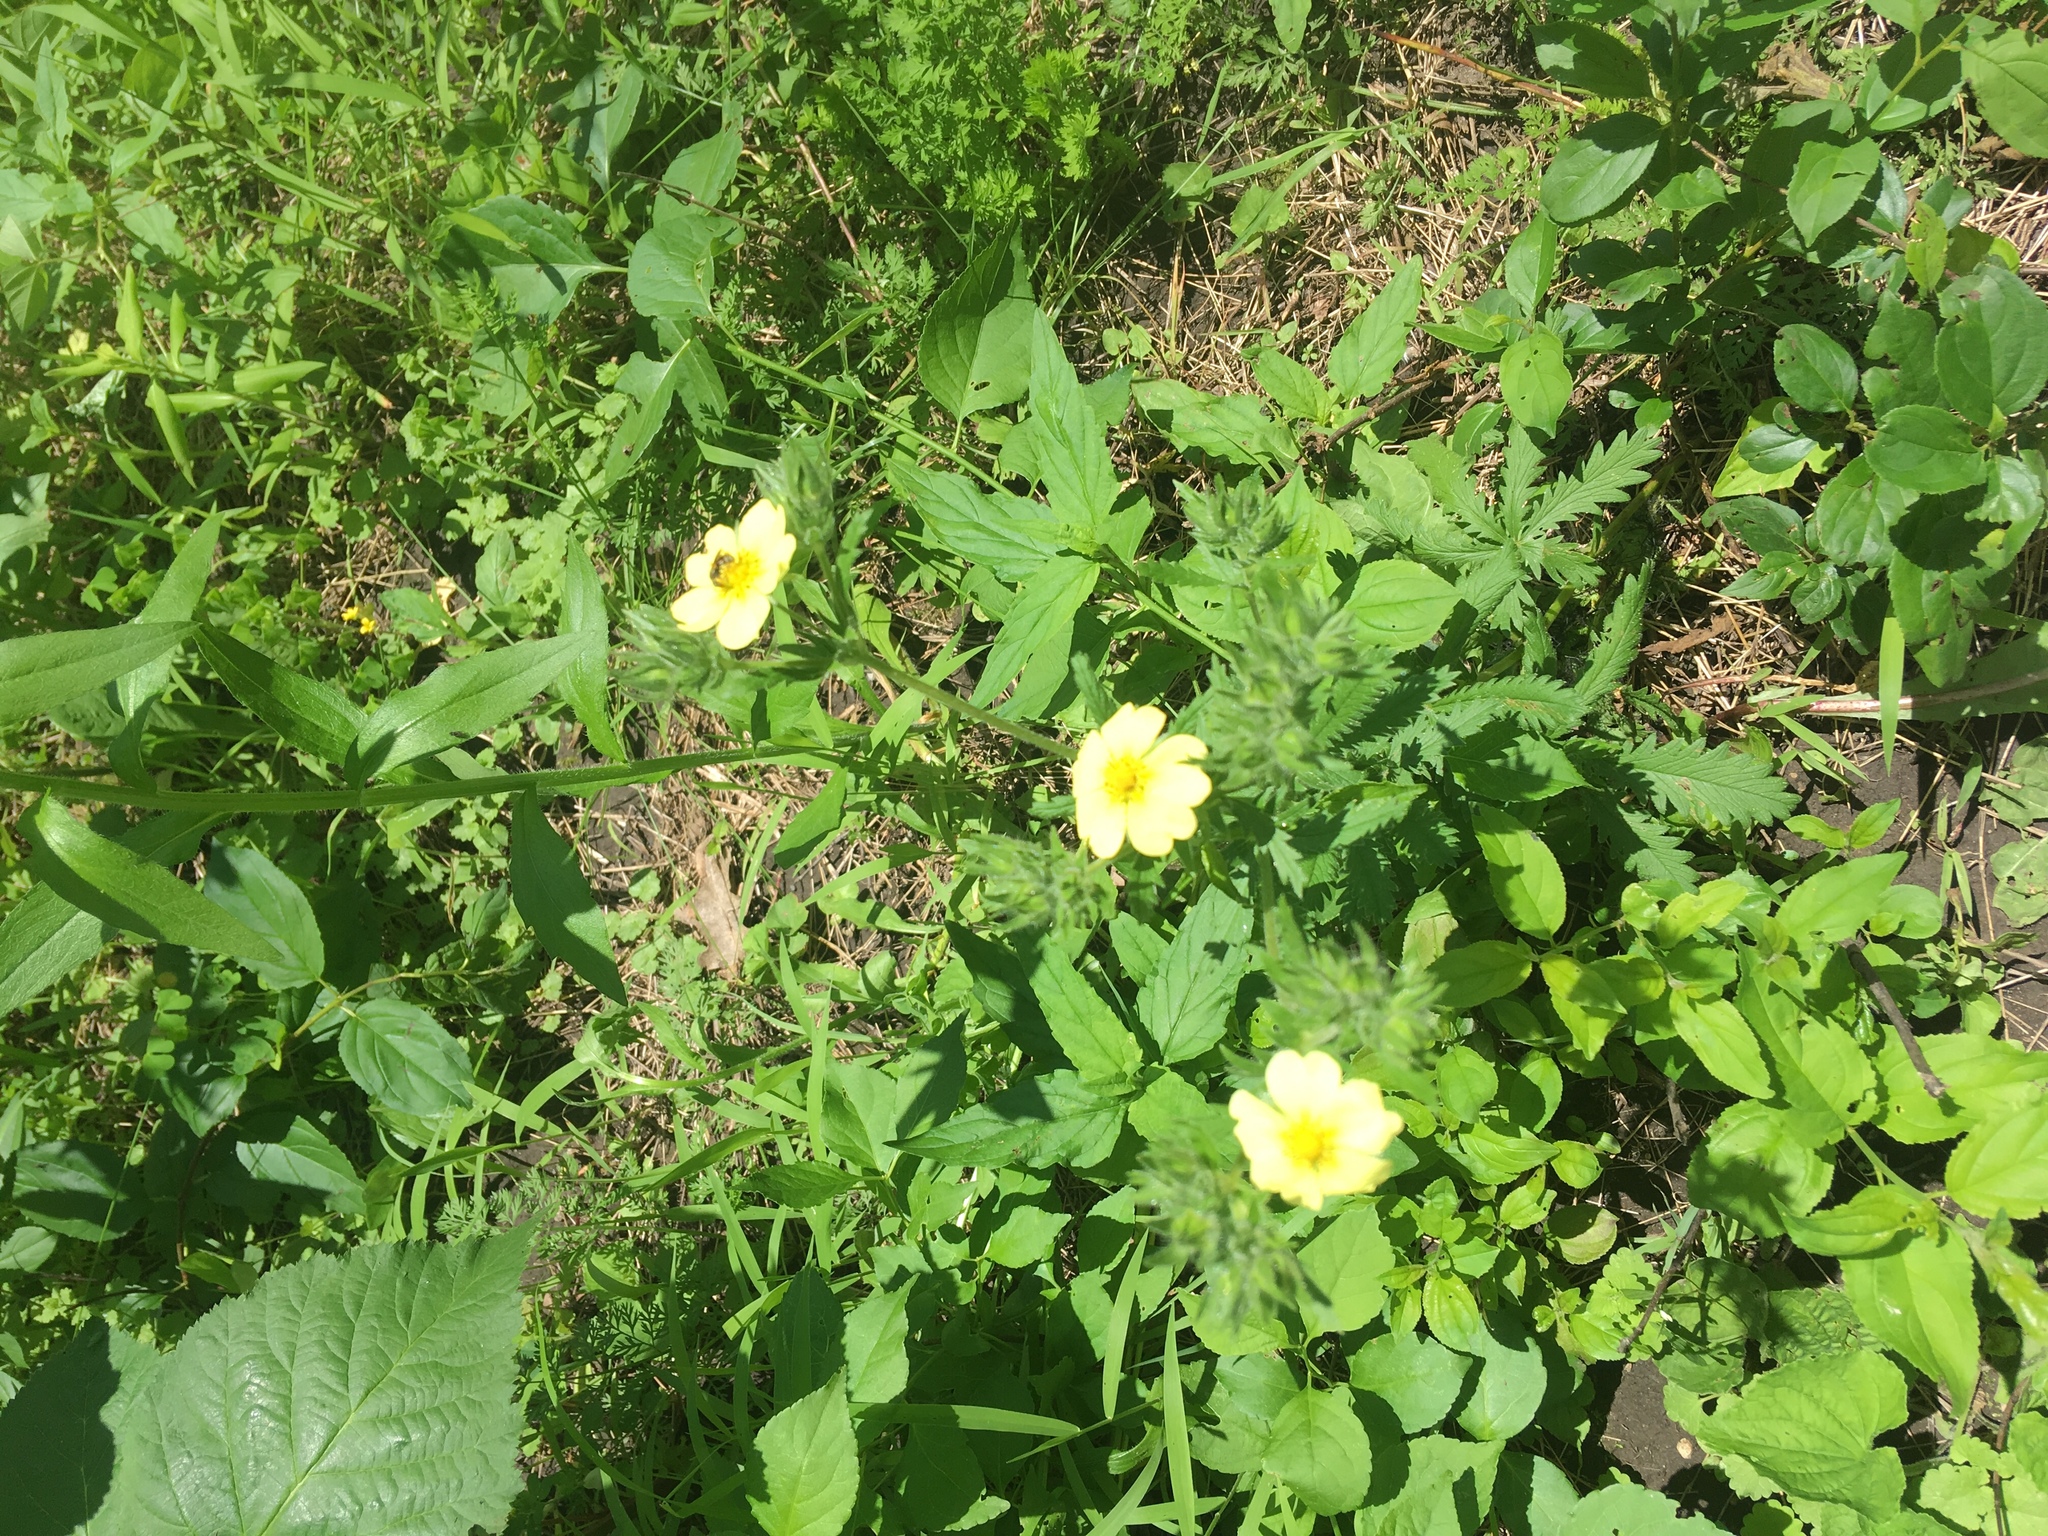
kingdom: Plantae
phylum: Tracheophyta
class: Magnoliopsida
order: Rosales
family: Rosaceae
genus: Potentilla
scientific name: Potentilla recta
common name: Sulphur cinquefoil
